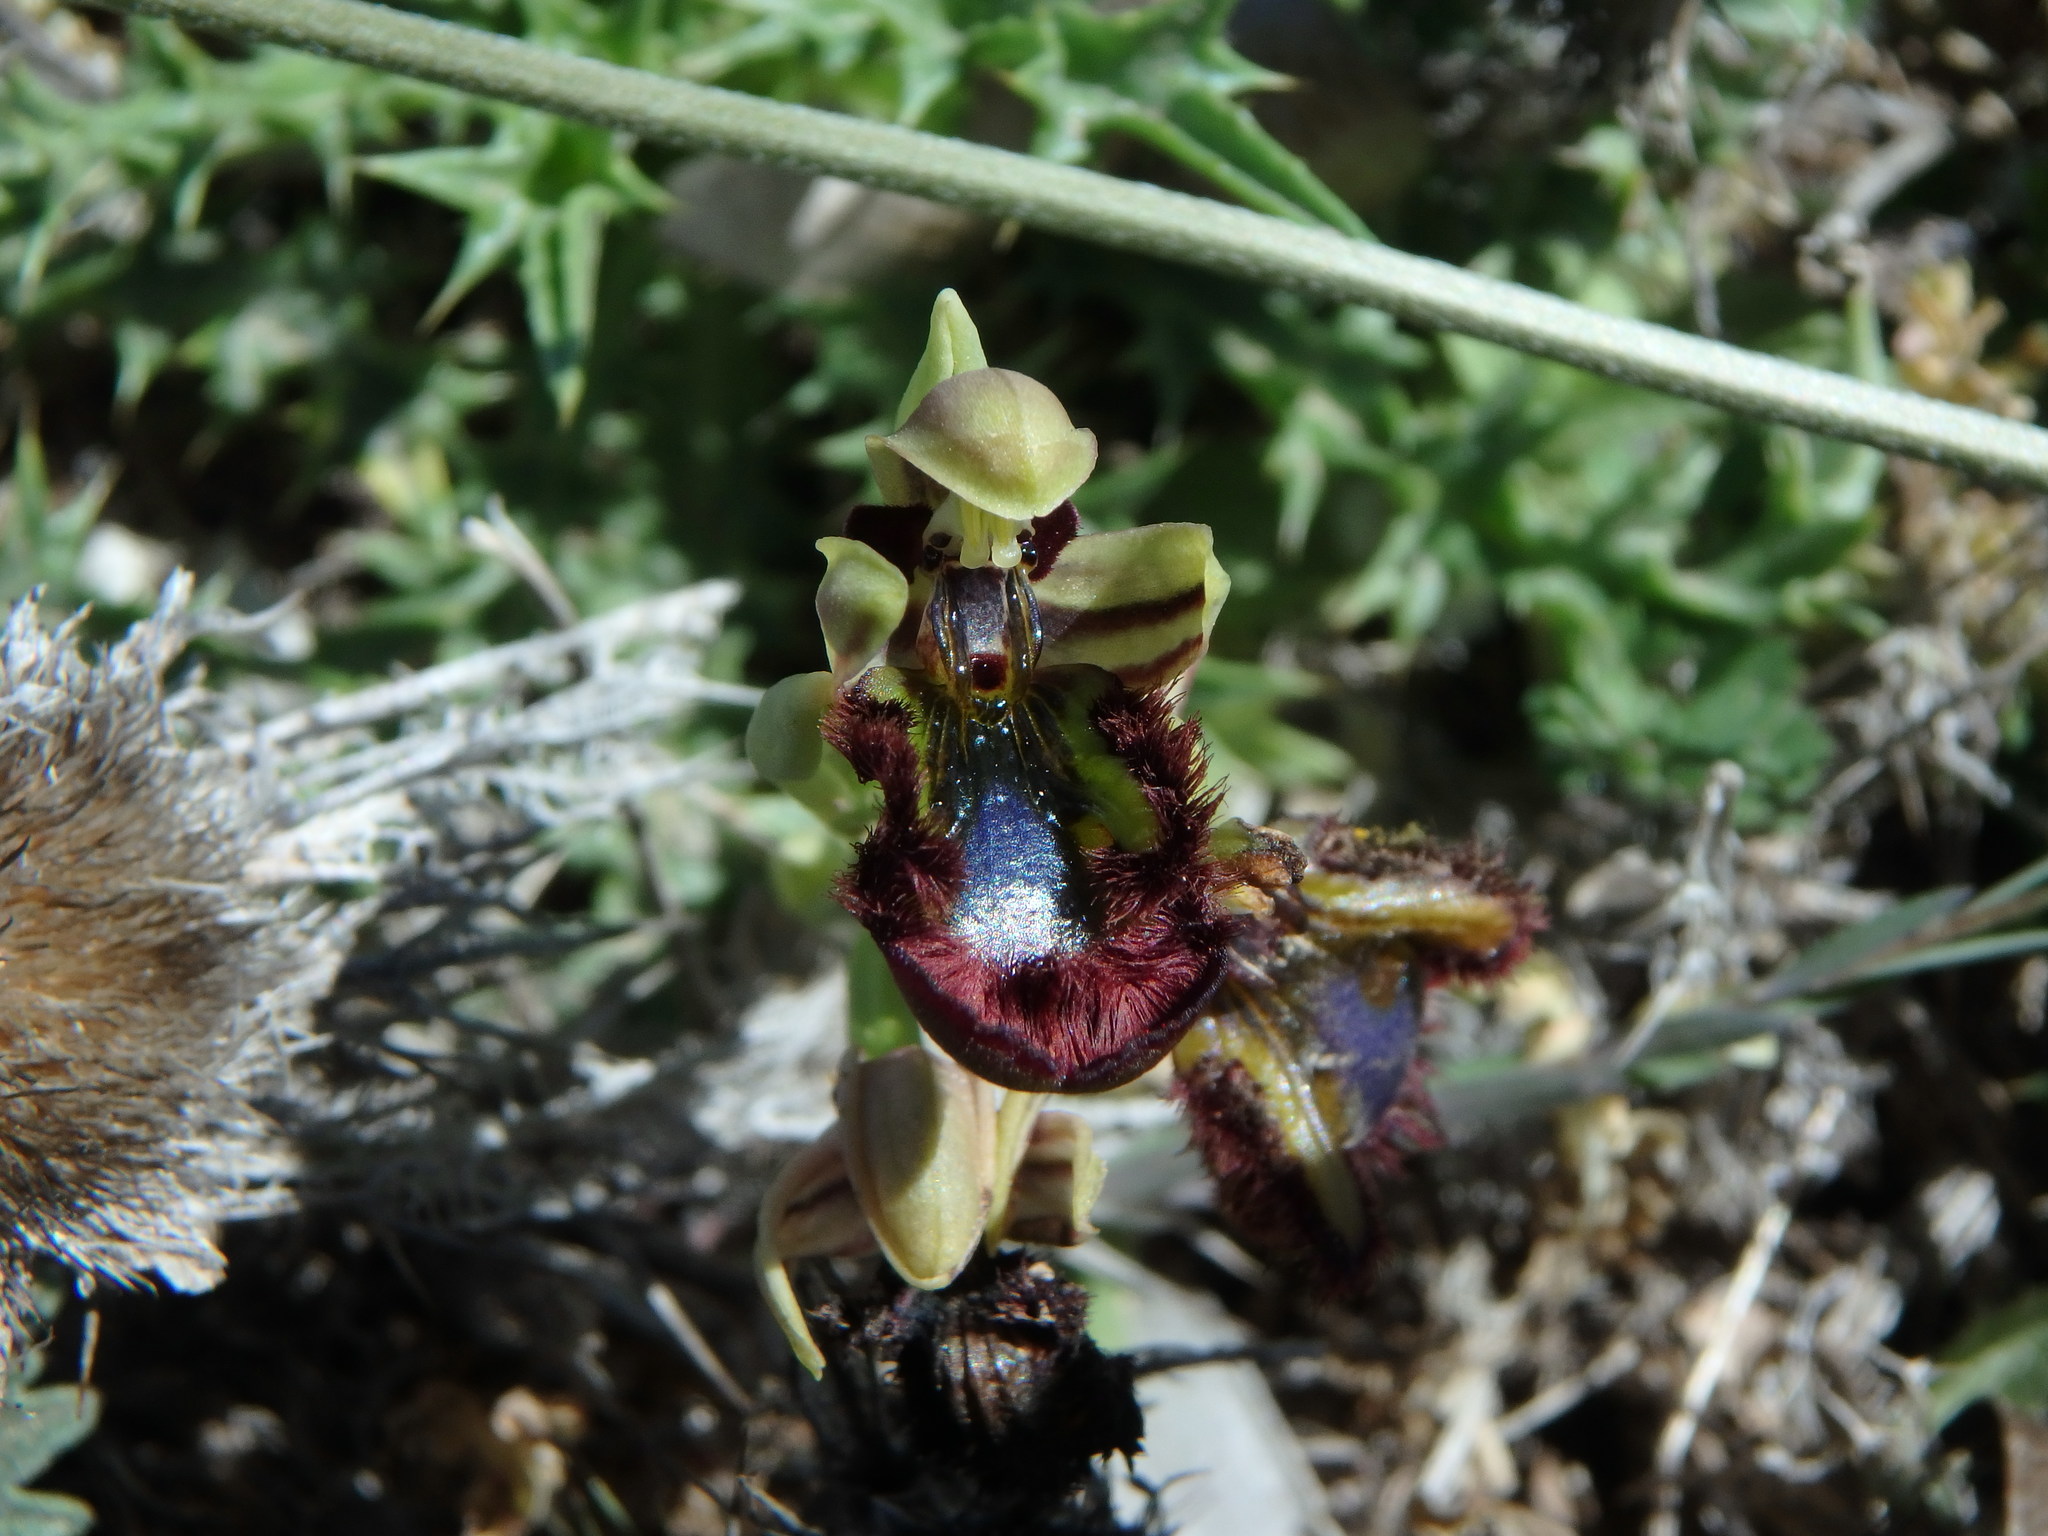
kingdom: Plantae
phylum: Tracheophyta
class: Liliopsida
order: Asparagales
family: Orchidaceae
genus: Ophrys
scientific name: Ophrys speculum
